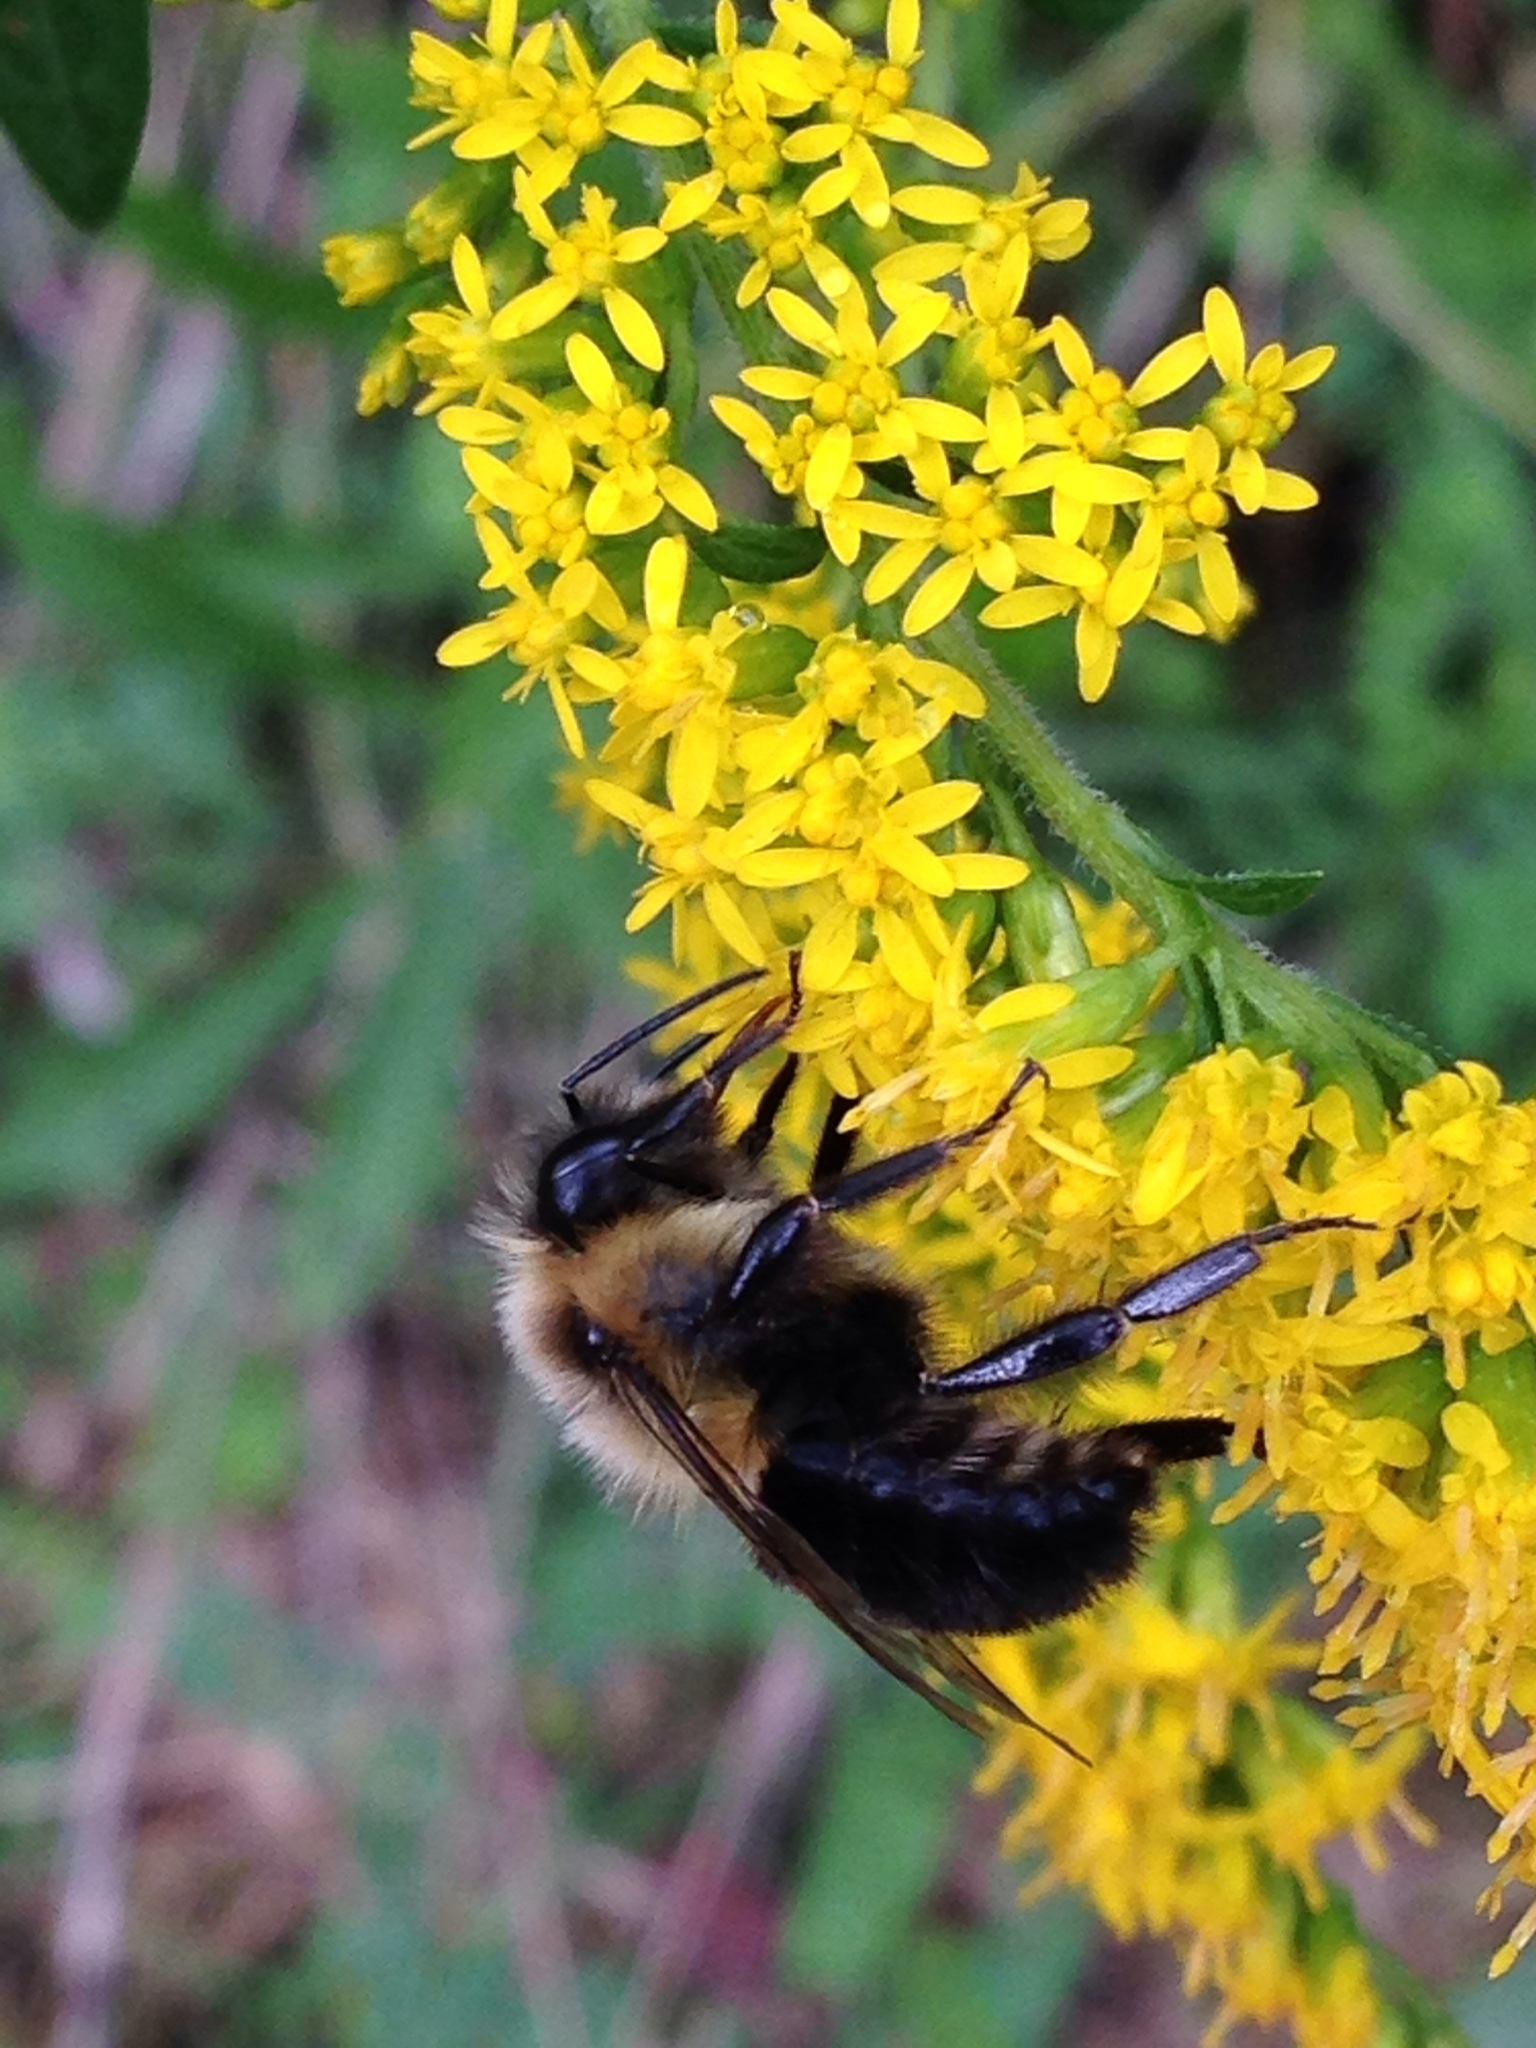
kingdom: Animalia
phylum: Arthropoda
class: Insecta
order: Hymenoptera
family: Apidae
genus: Bombus
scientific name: Bombus impatiens
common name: Common eastern bumble bee
